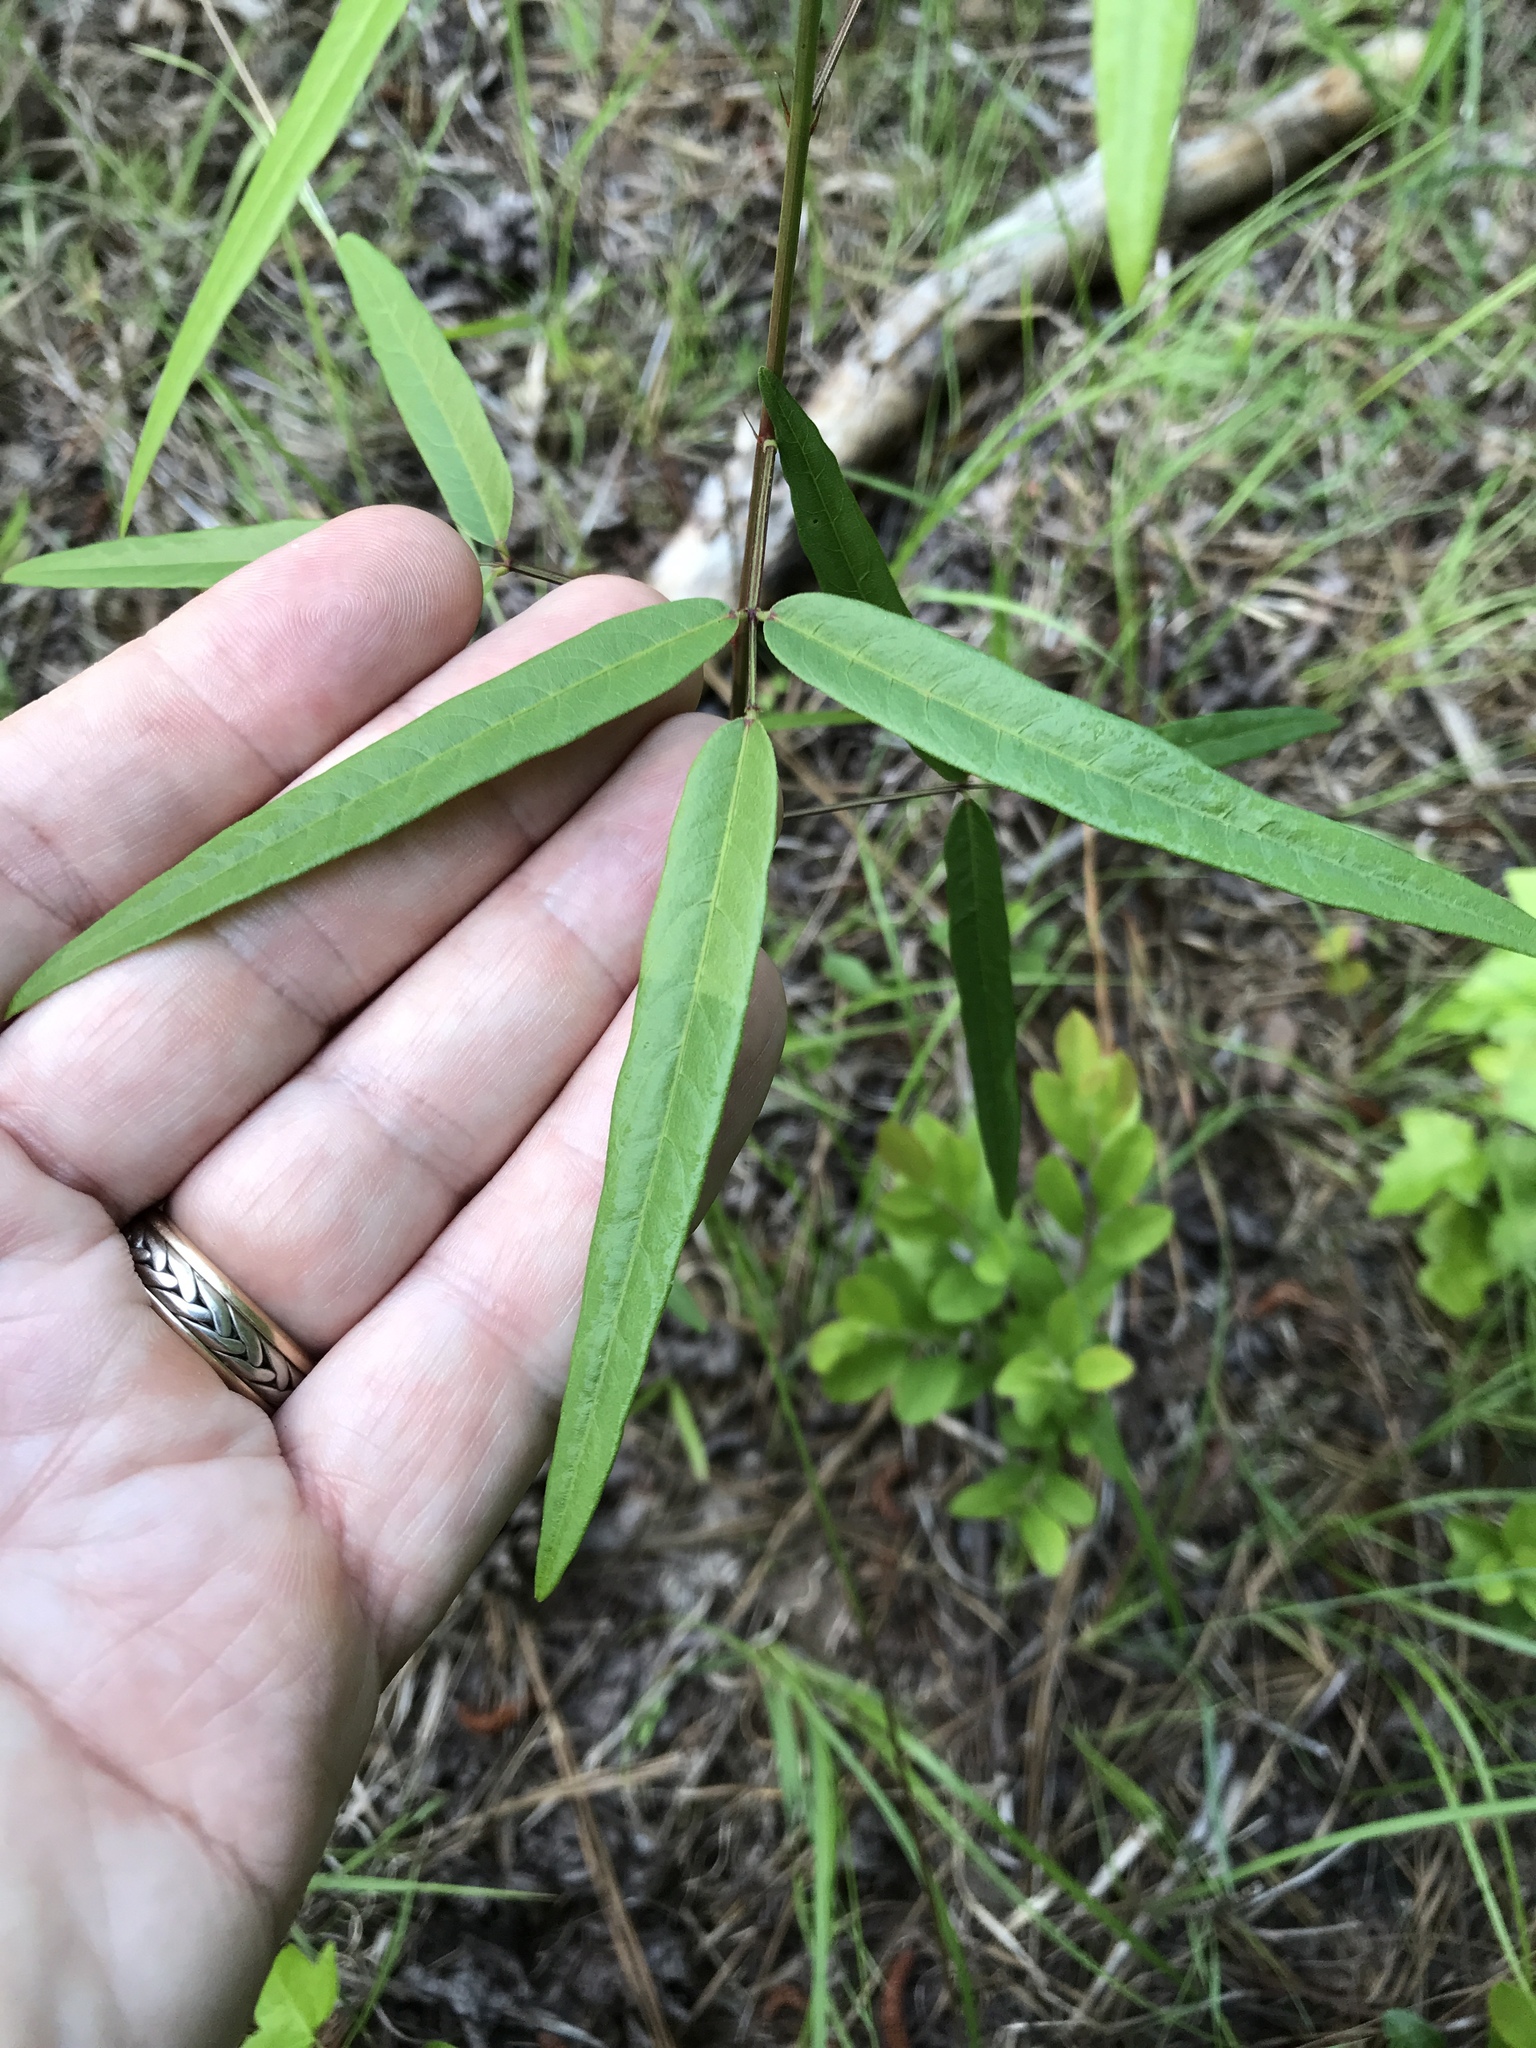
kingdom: Plantae
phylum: Tracheophyta
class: Magnoliopsida
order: Fabales
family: Fabaceae
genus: Desmodium
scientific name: Desmodium paniculatum
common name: Panicled tick-clover
